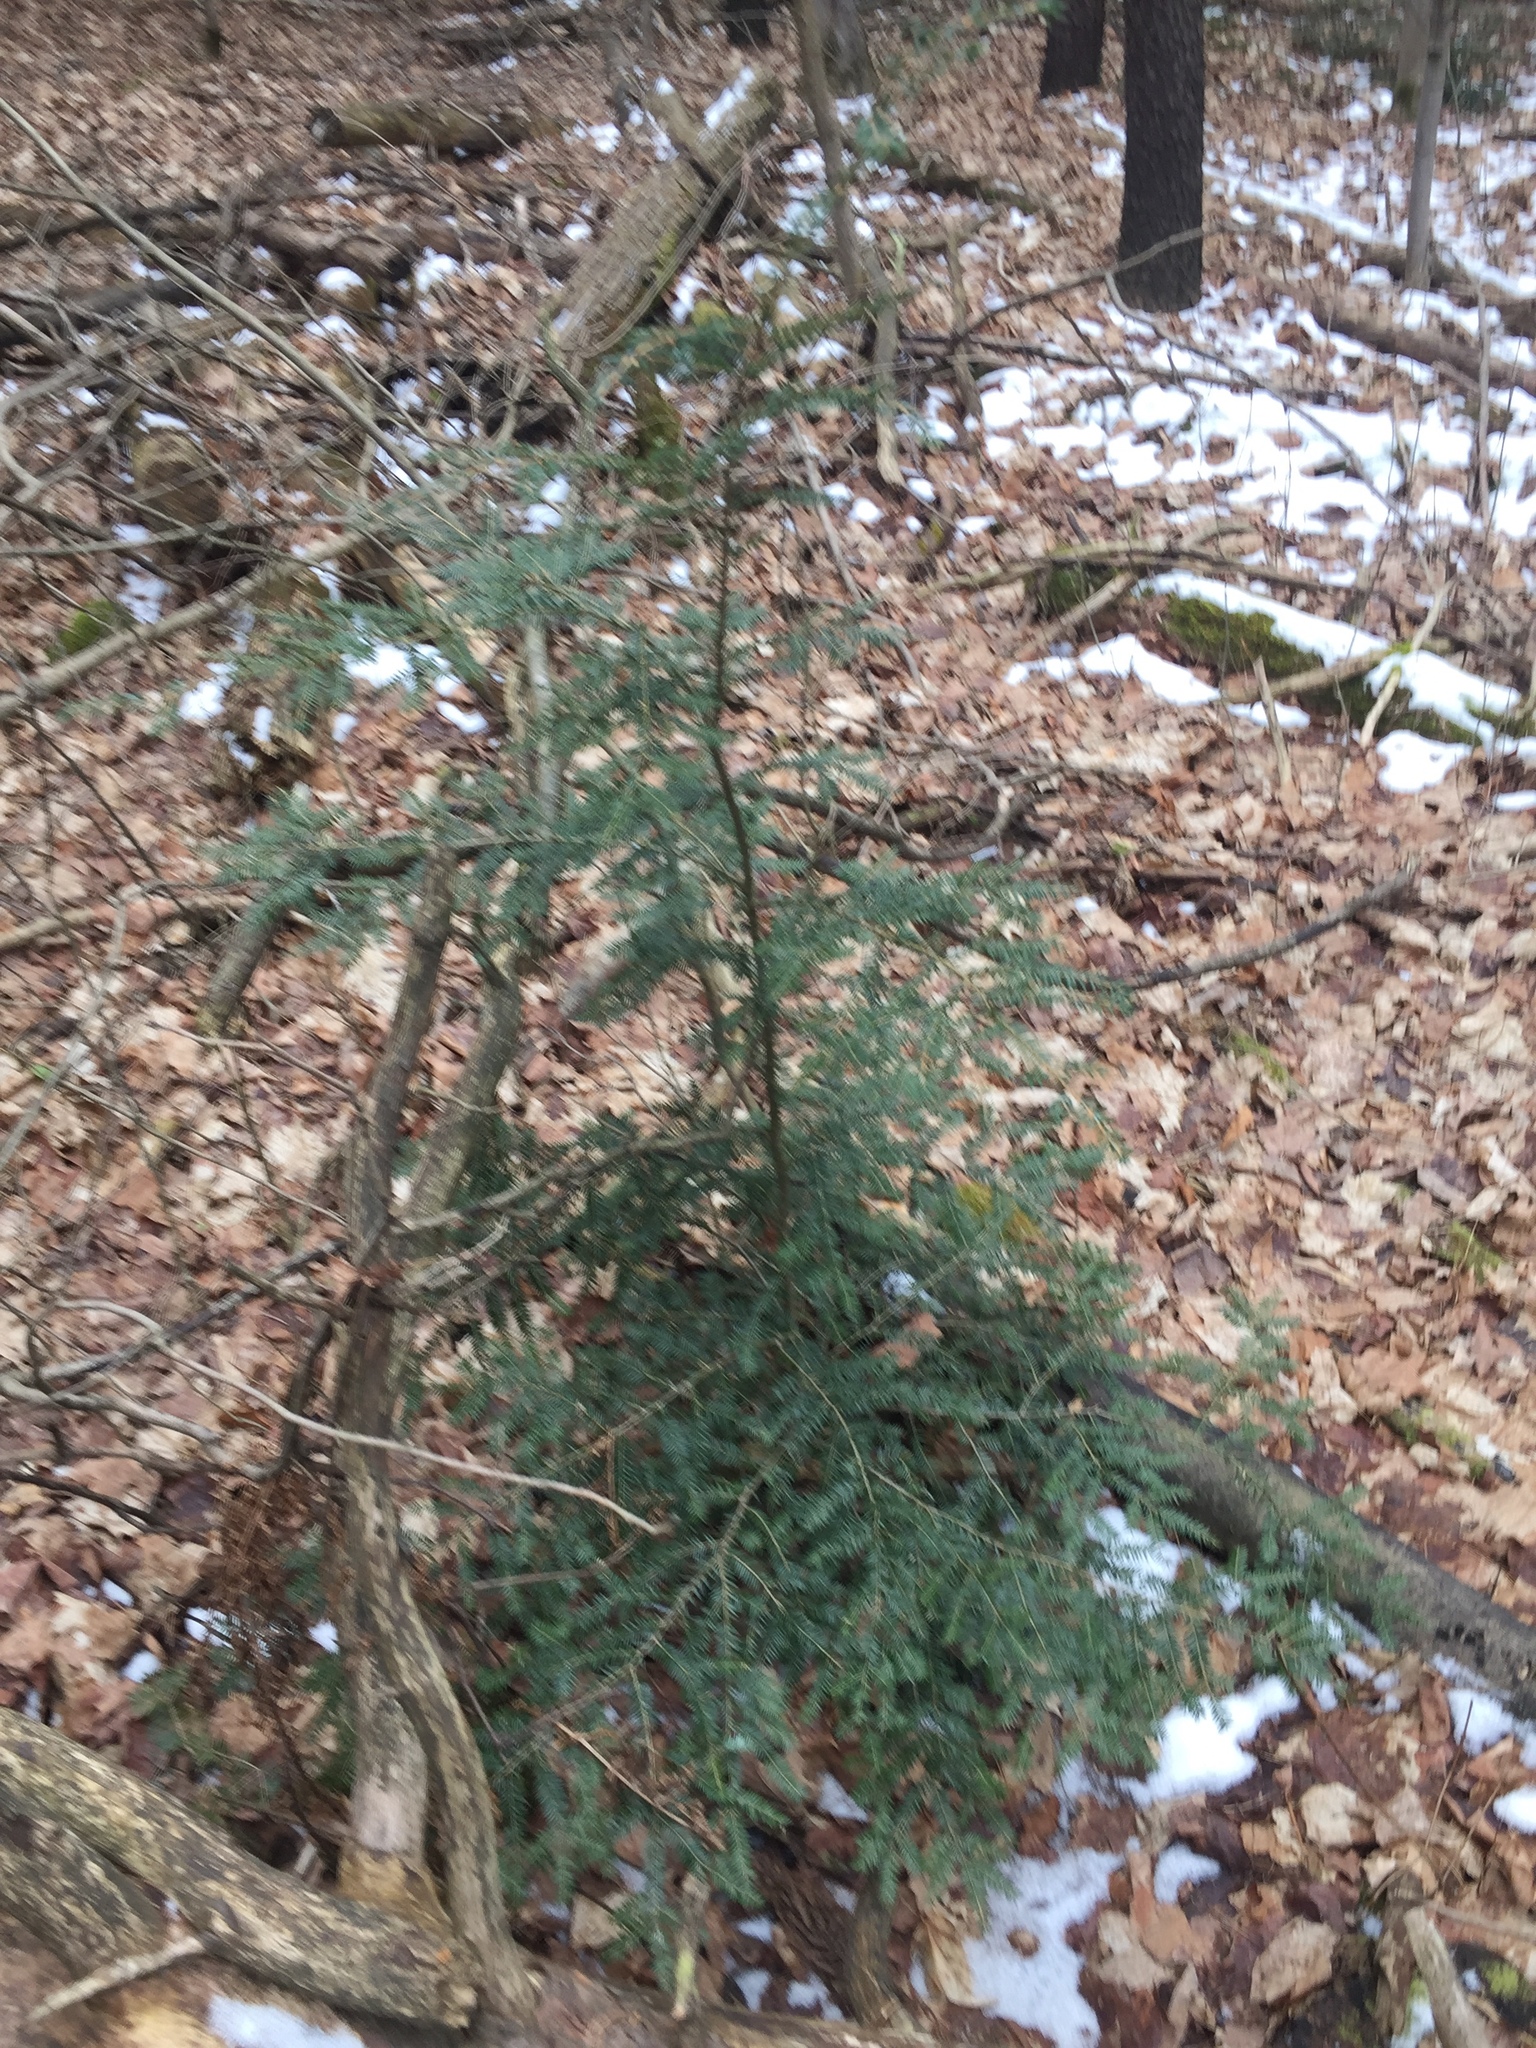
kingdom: Plantae
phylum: Tracheophyta
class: Pinopsida
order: Pinales
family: Pinaceae
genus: Tsuga
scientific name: Tsuga canadensis
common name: Eastern hemlock
